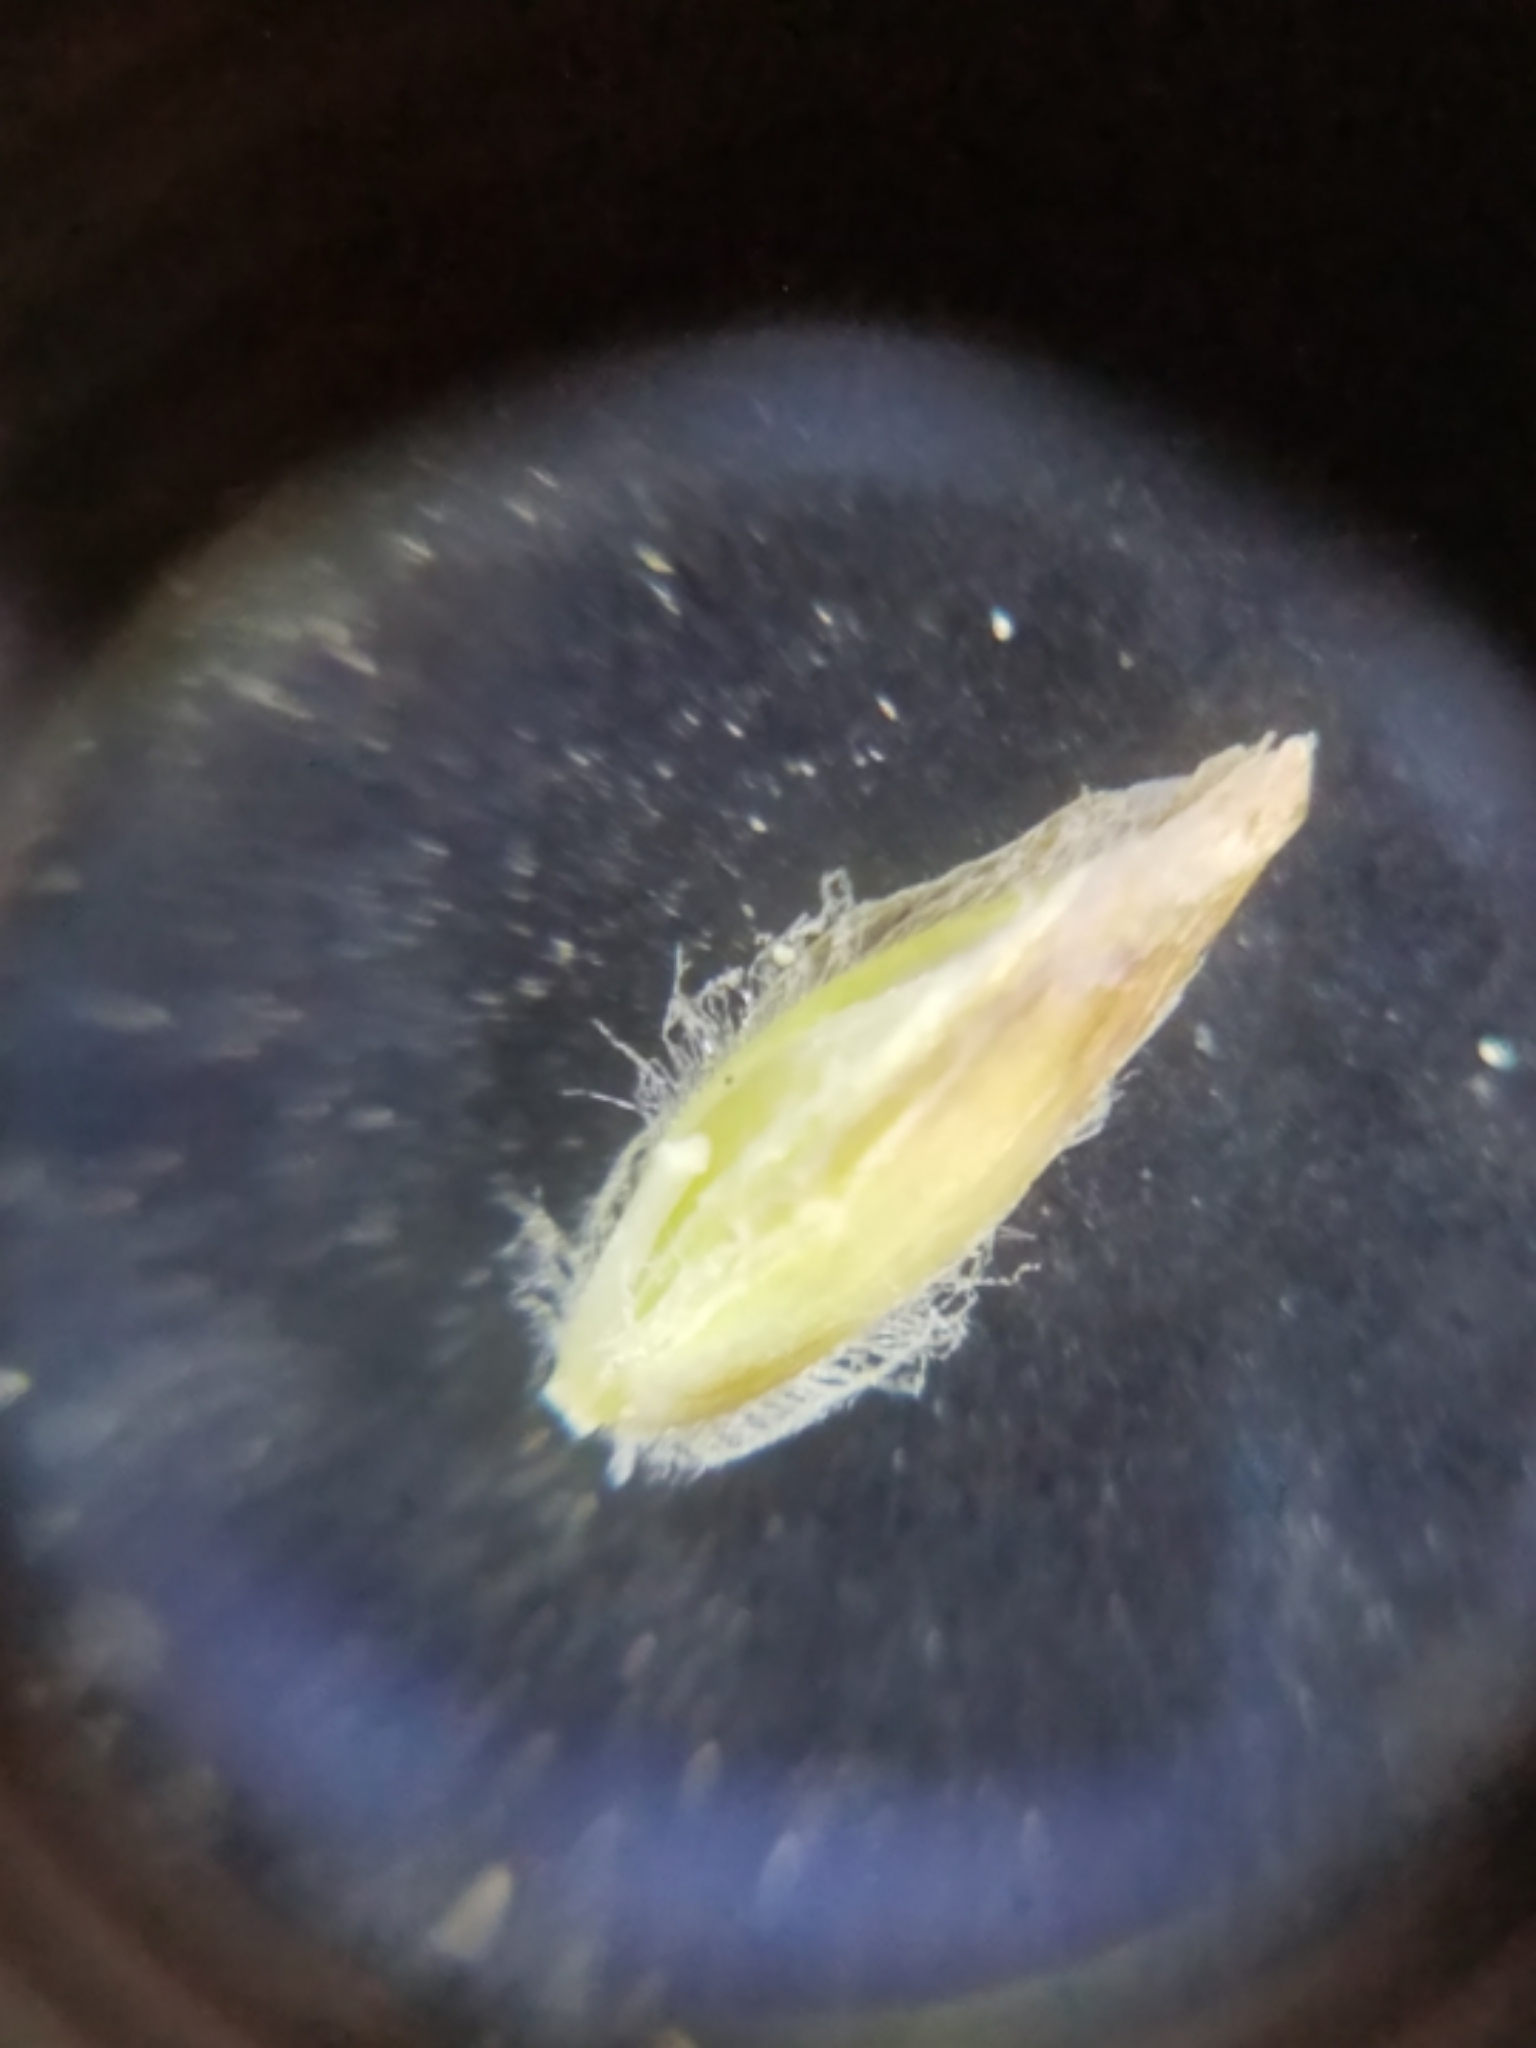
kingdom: Plantae
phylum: Tracheophyta
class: Liliopsida
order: Poales
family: Poaceae
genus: Poa
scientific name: Poa annua
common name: Annual bluegrass
